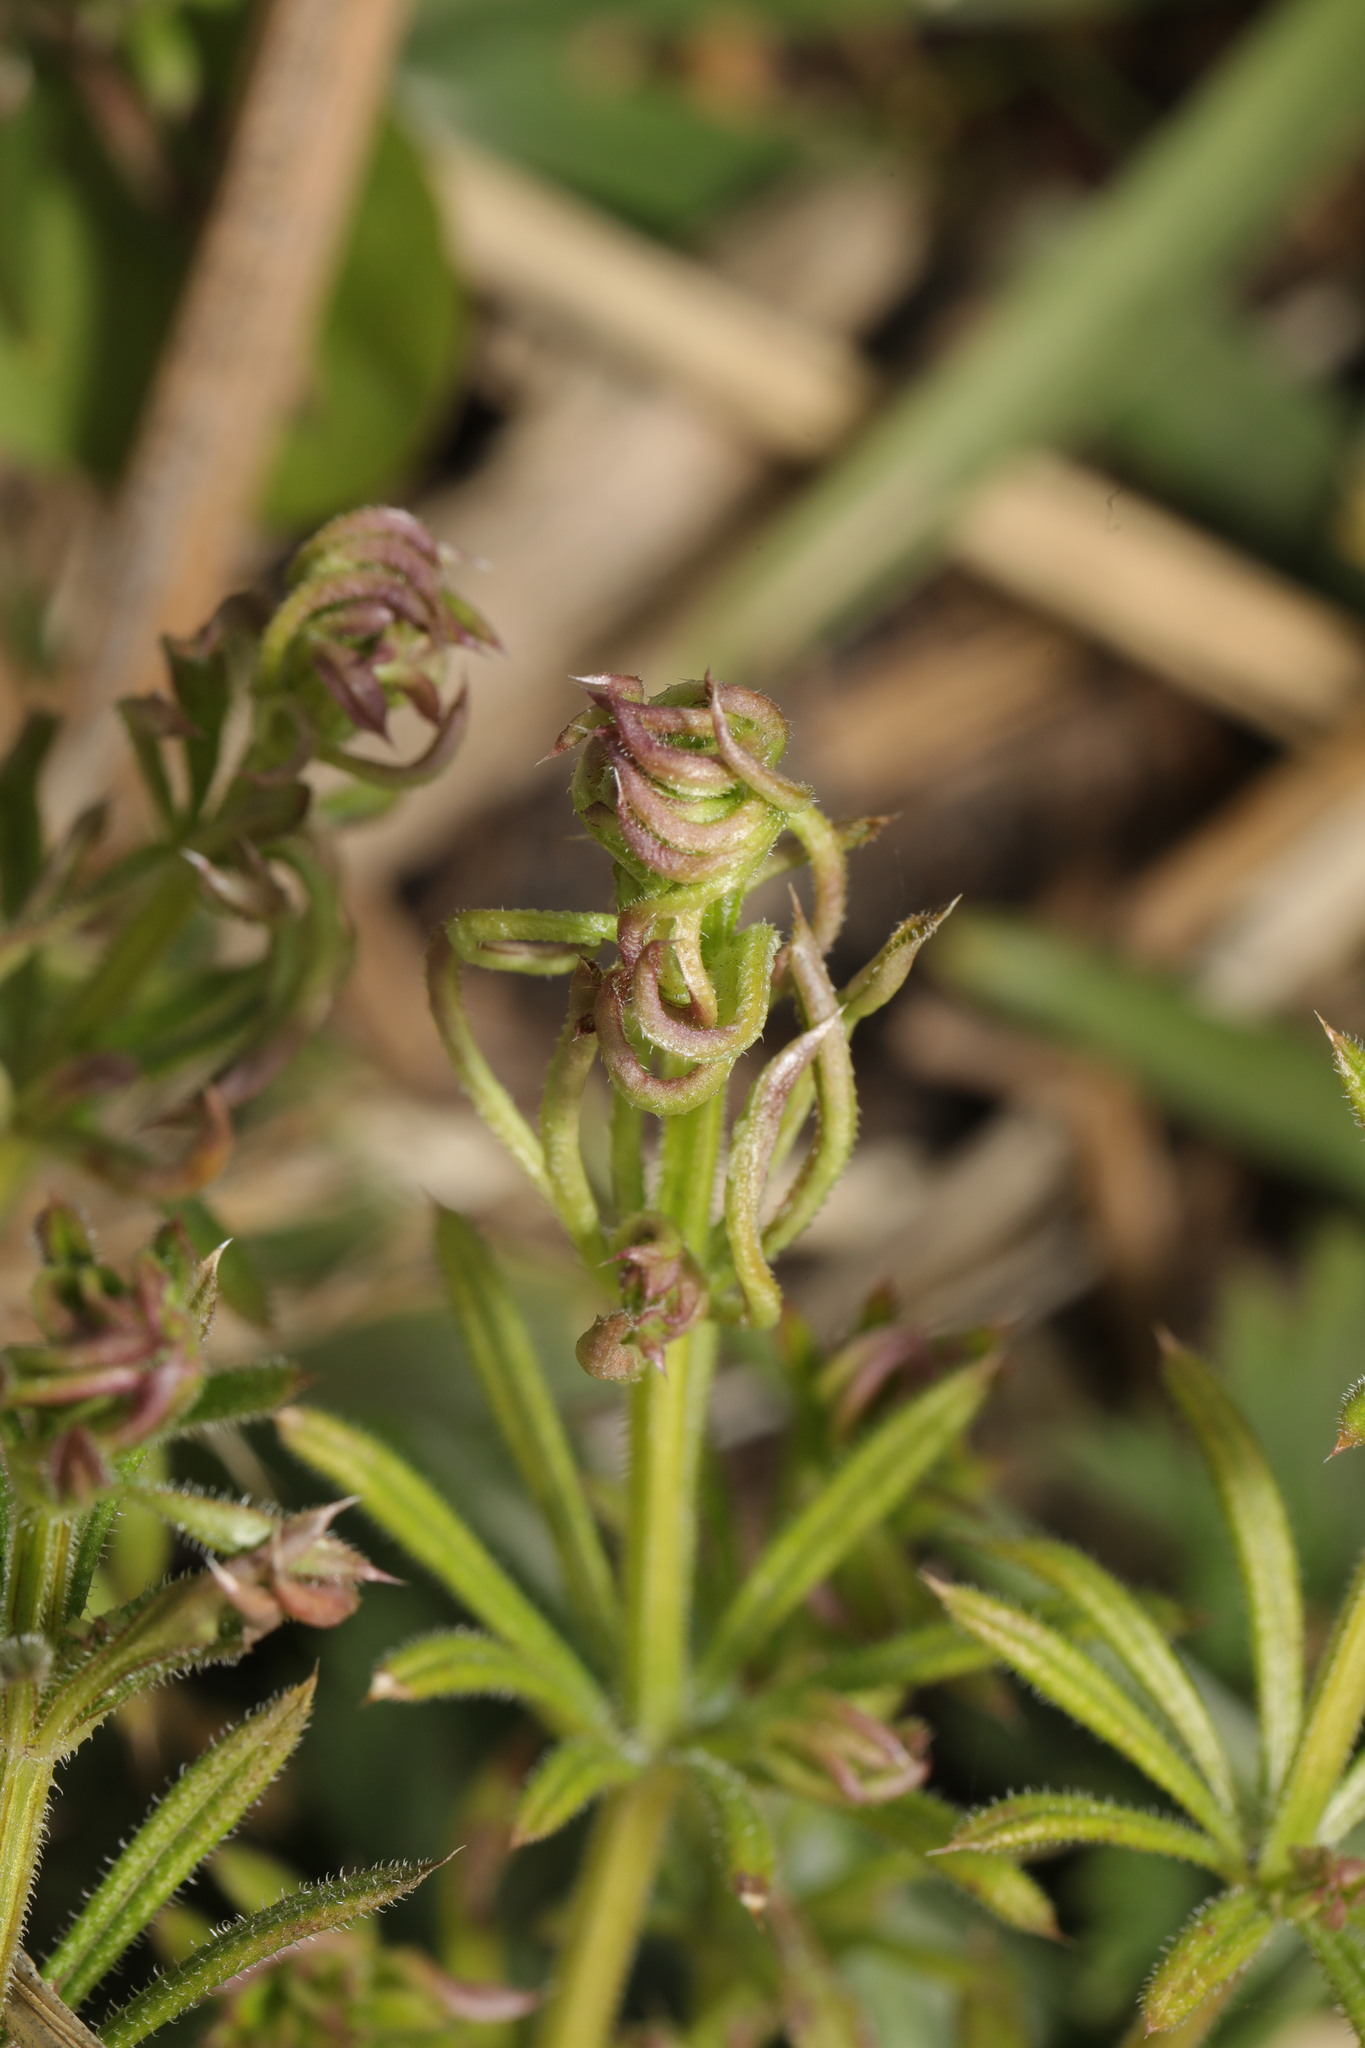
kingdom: Animalia
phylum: Arthropoda
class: Arachnida
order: Trombidiformes
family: Eriophyidae
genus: Cecidophyes
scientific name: Cecidophyes rouhollahi
